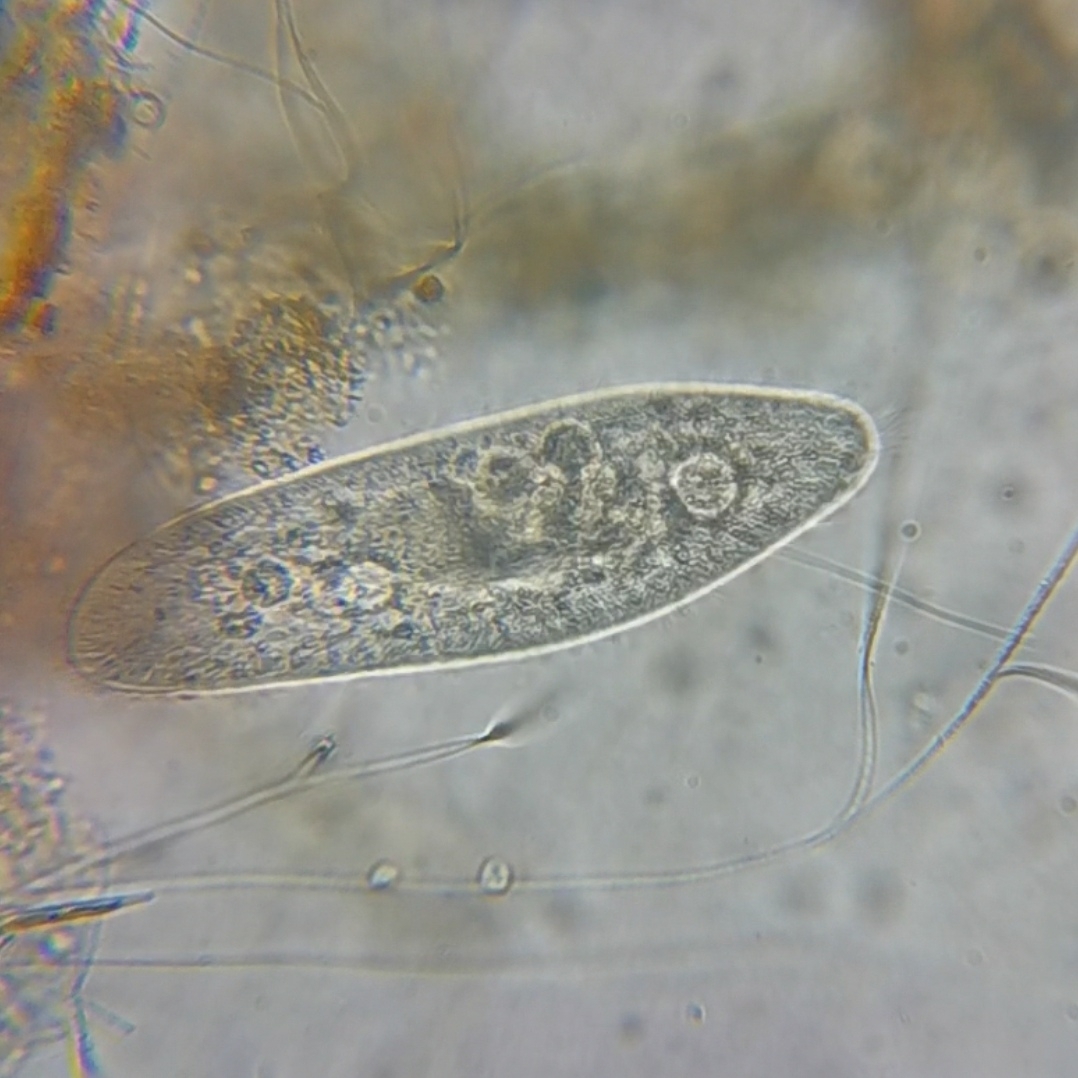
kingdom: Chromista
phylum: Ciliophora
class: Oligohymenophorea
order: Peniculida
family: Parameciidae
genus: Paramecium
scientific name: Paramecium caudatum
